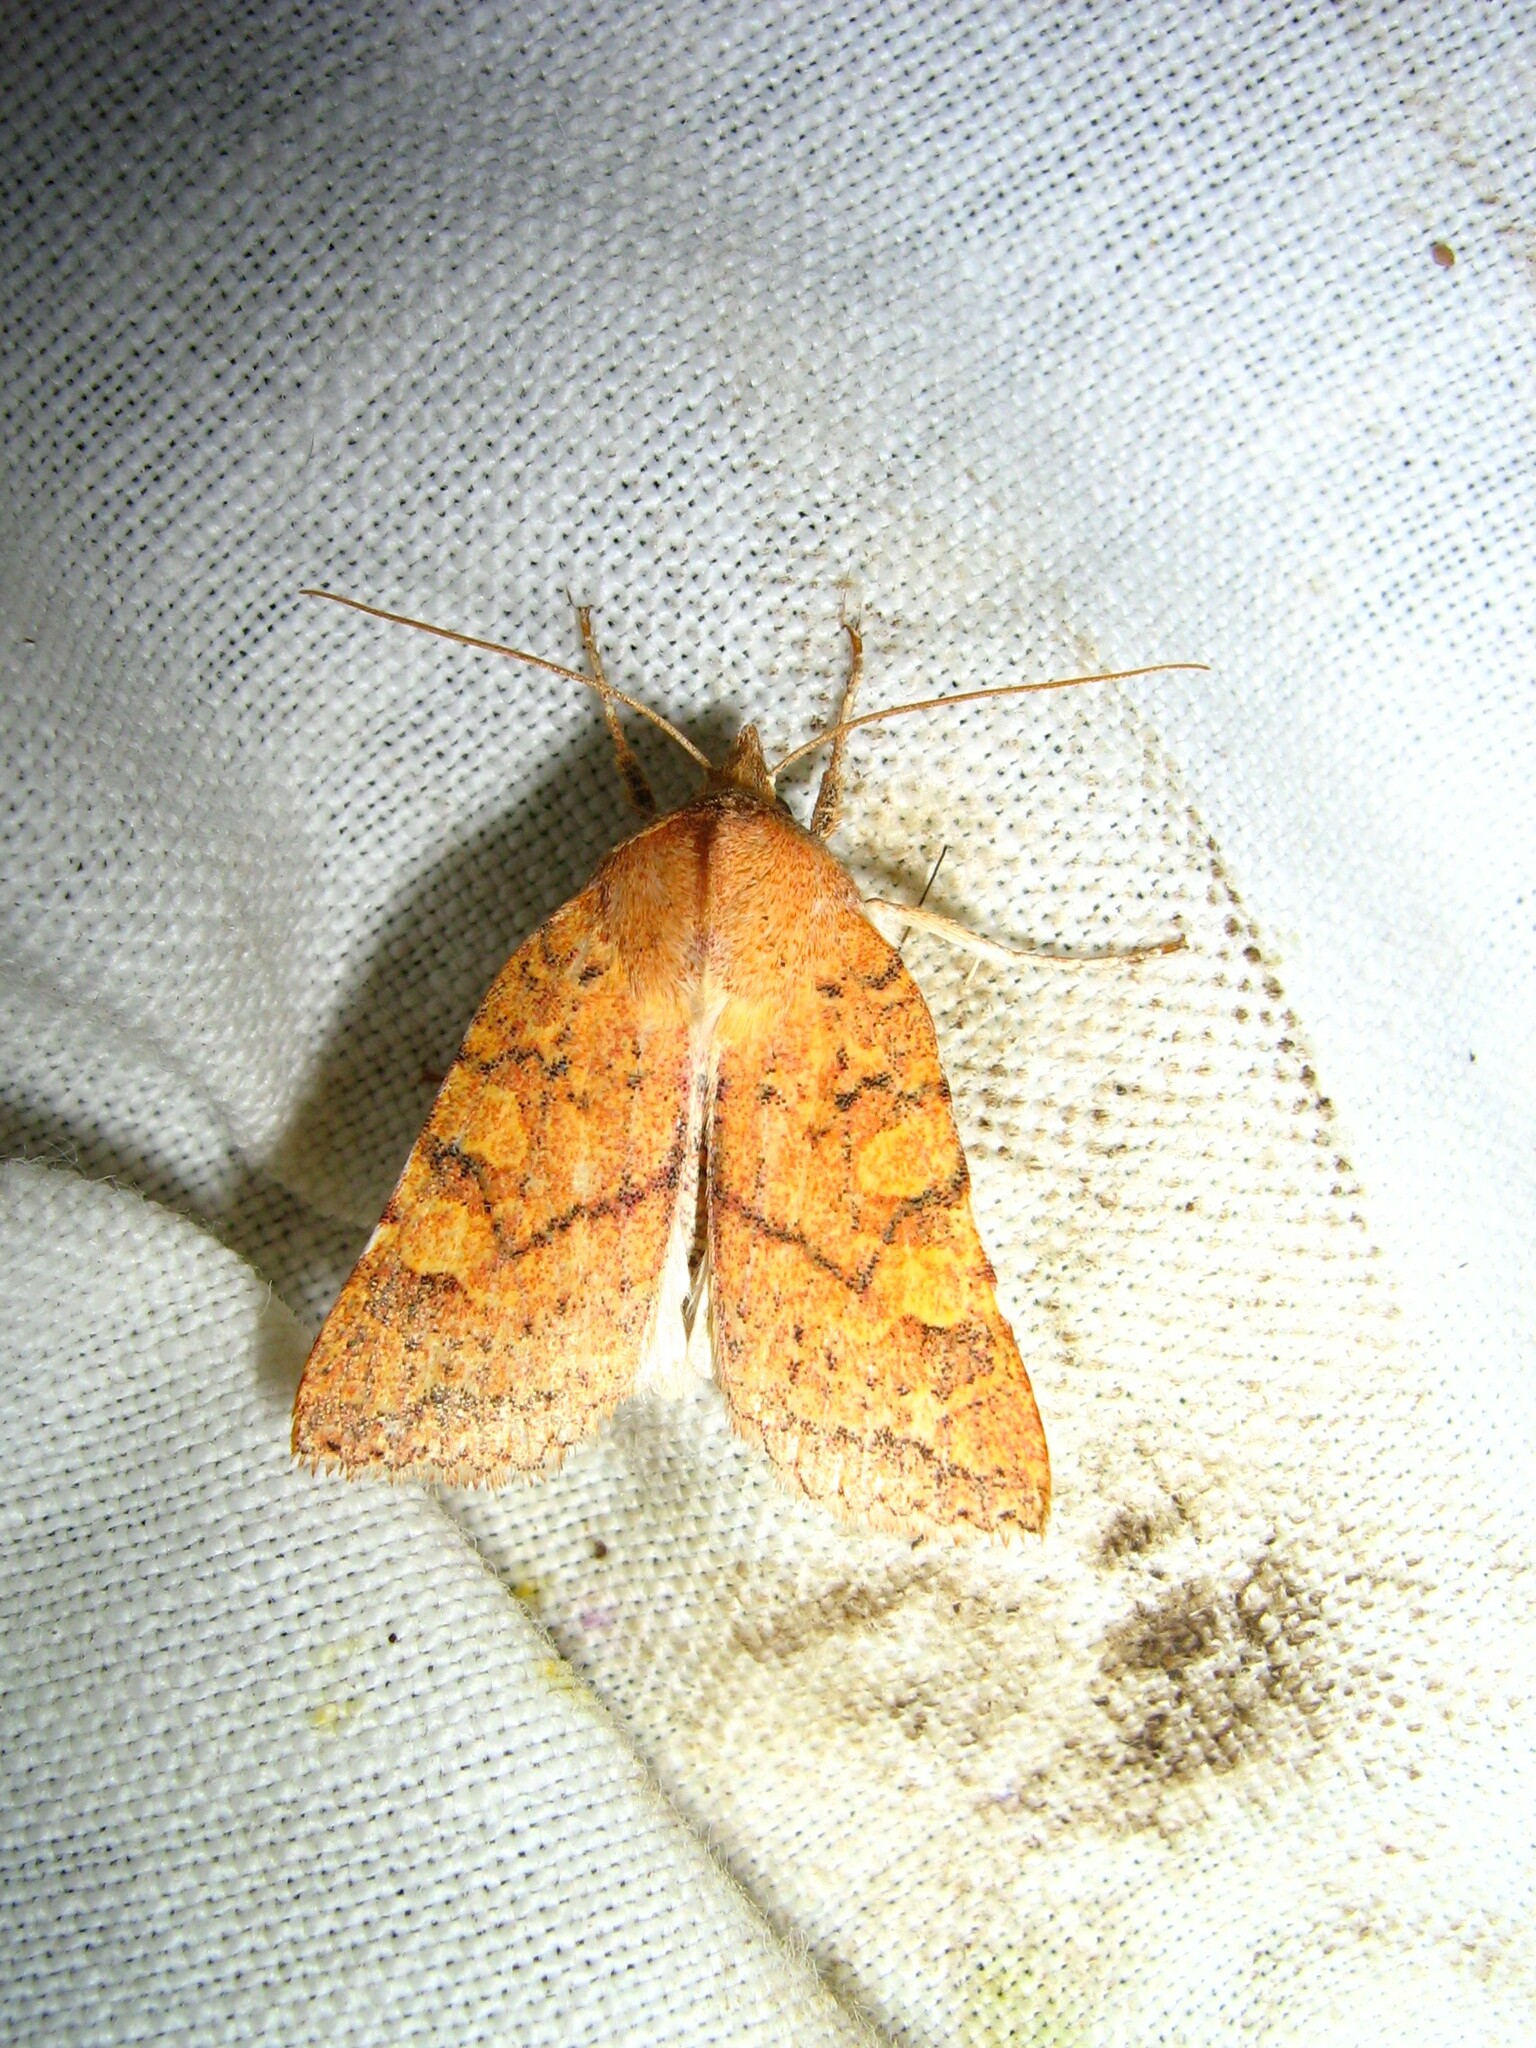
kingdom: Animalia
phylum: Arthropoda
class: Insecta
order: Lepidoptera
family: Noctuidae
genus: Jodia
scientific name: Jodia croceago
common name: Orange upperwing
